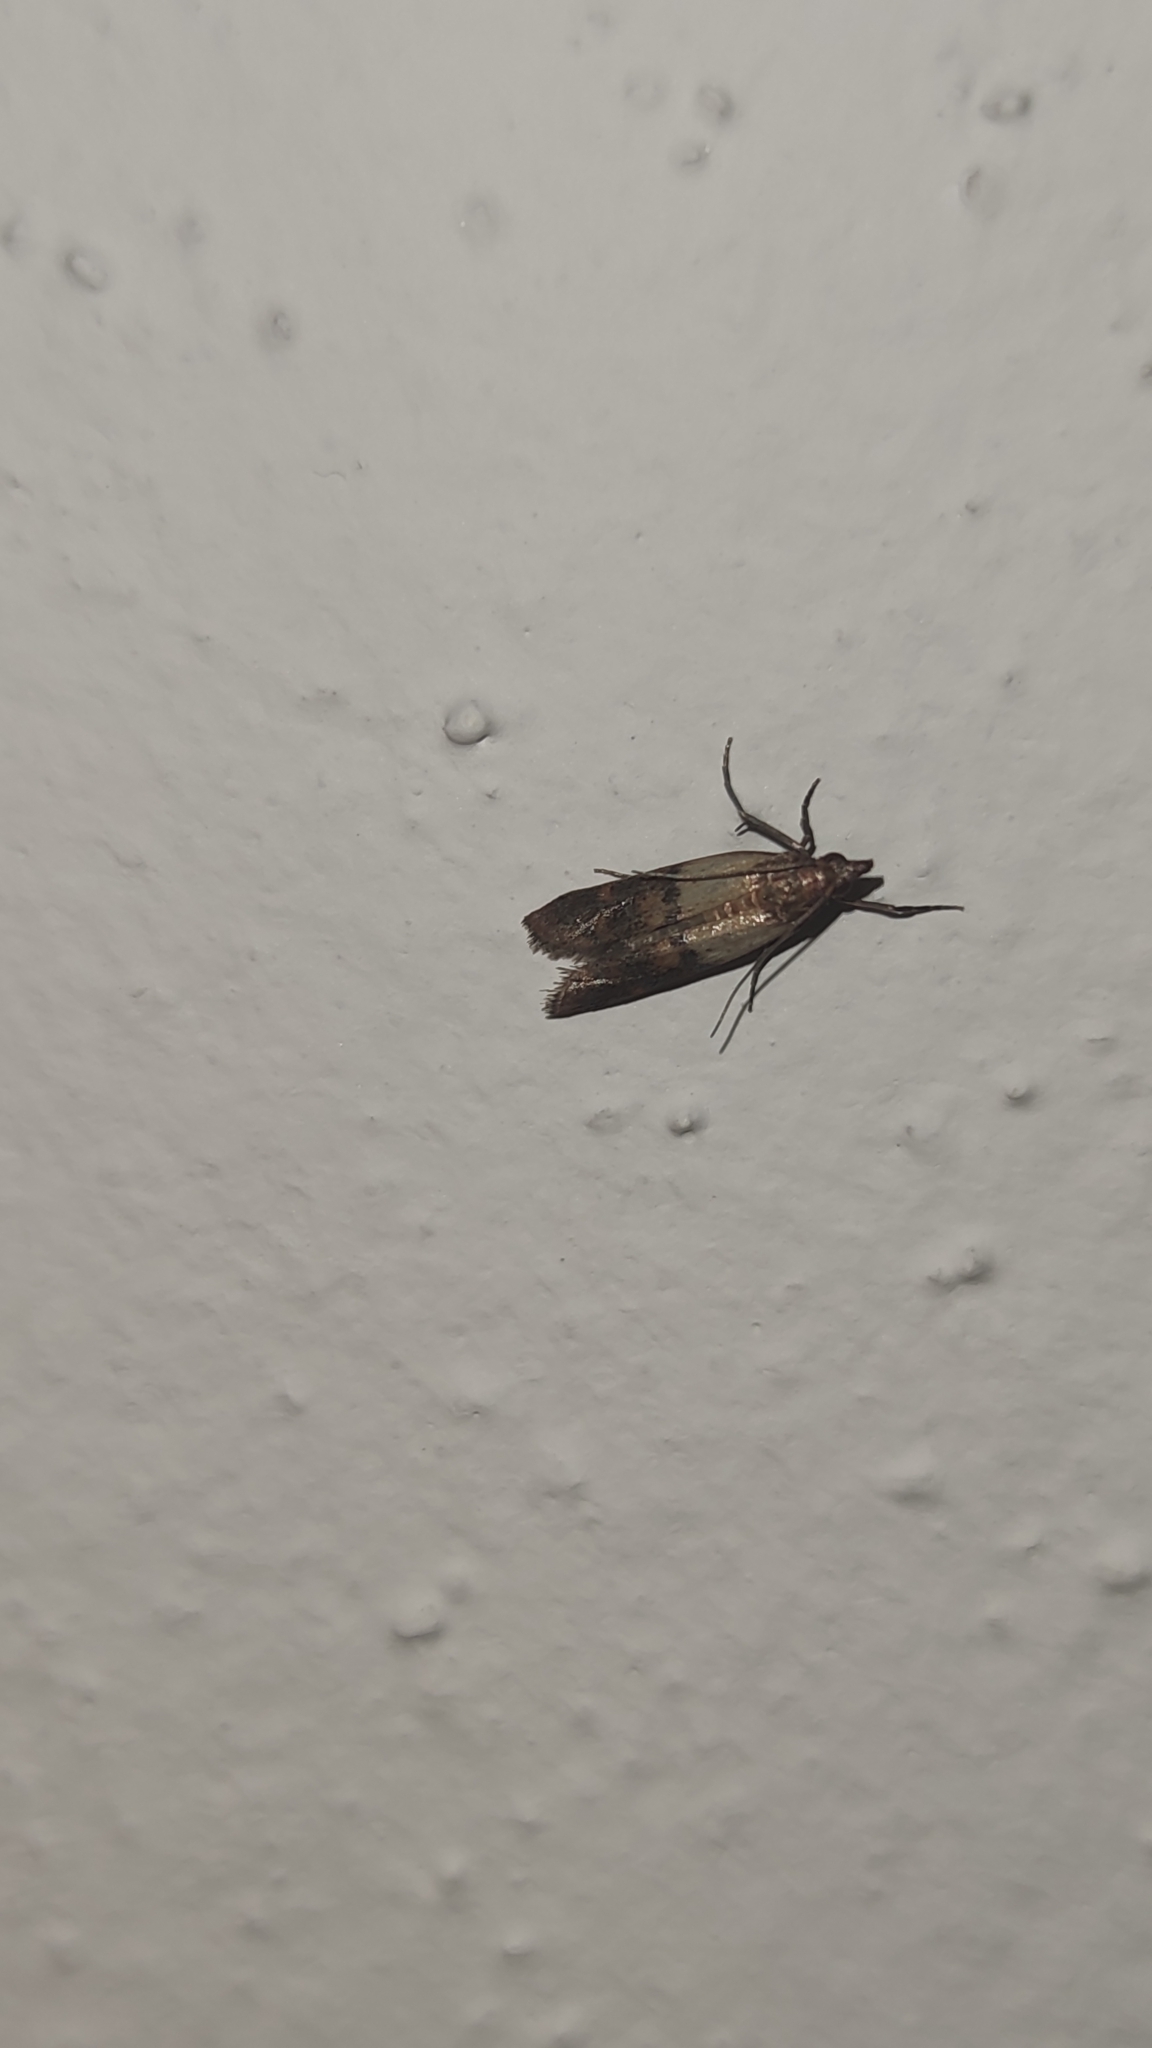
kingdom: Animalia
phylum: Arthropoda
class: Insecta
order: Lepidoptera
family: Pyralidae
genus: Plodia
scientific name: Plodia interpunctella
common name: Indian meal moth
